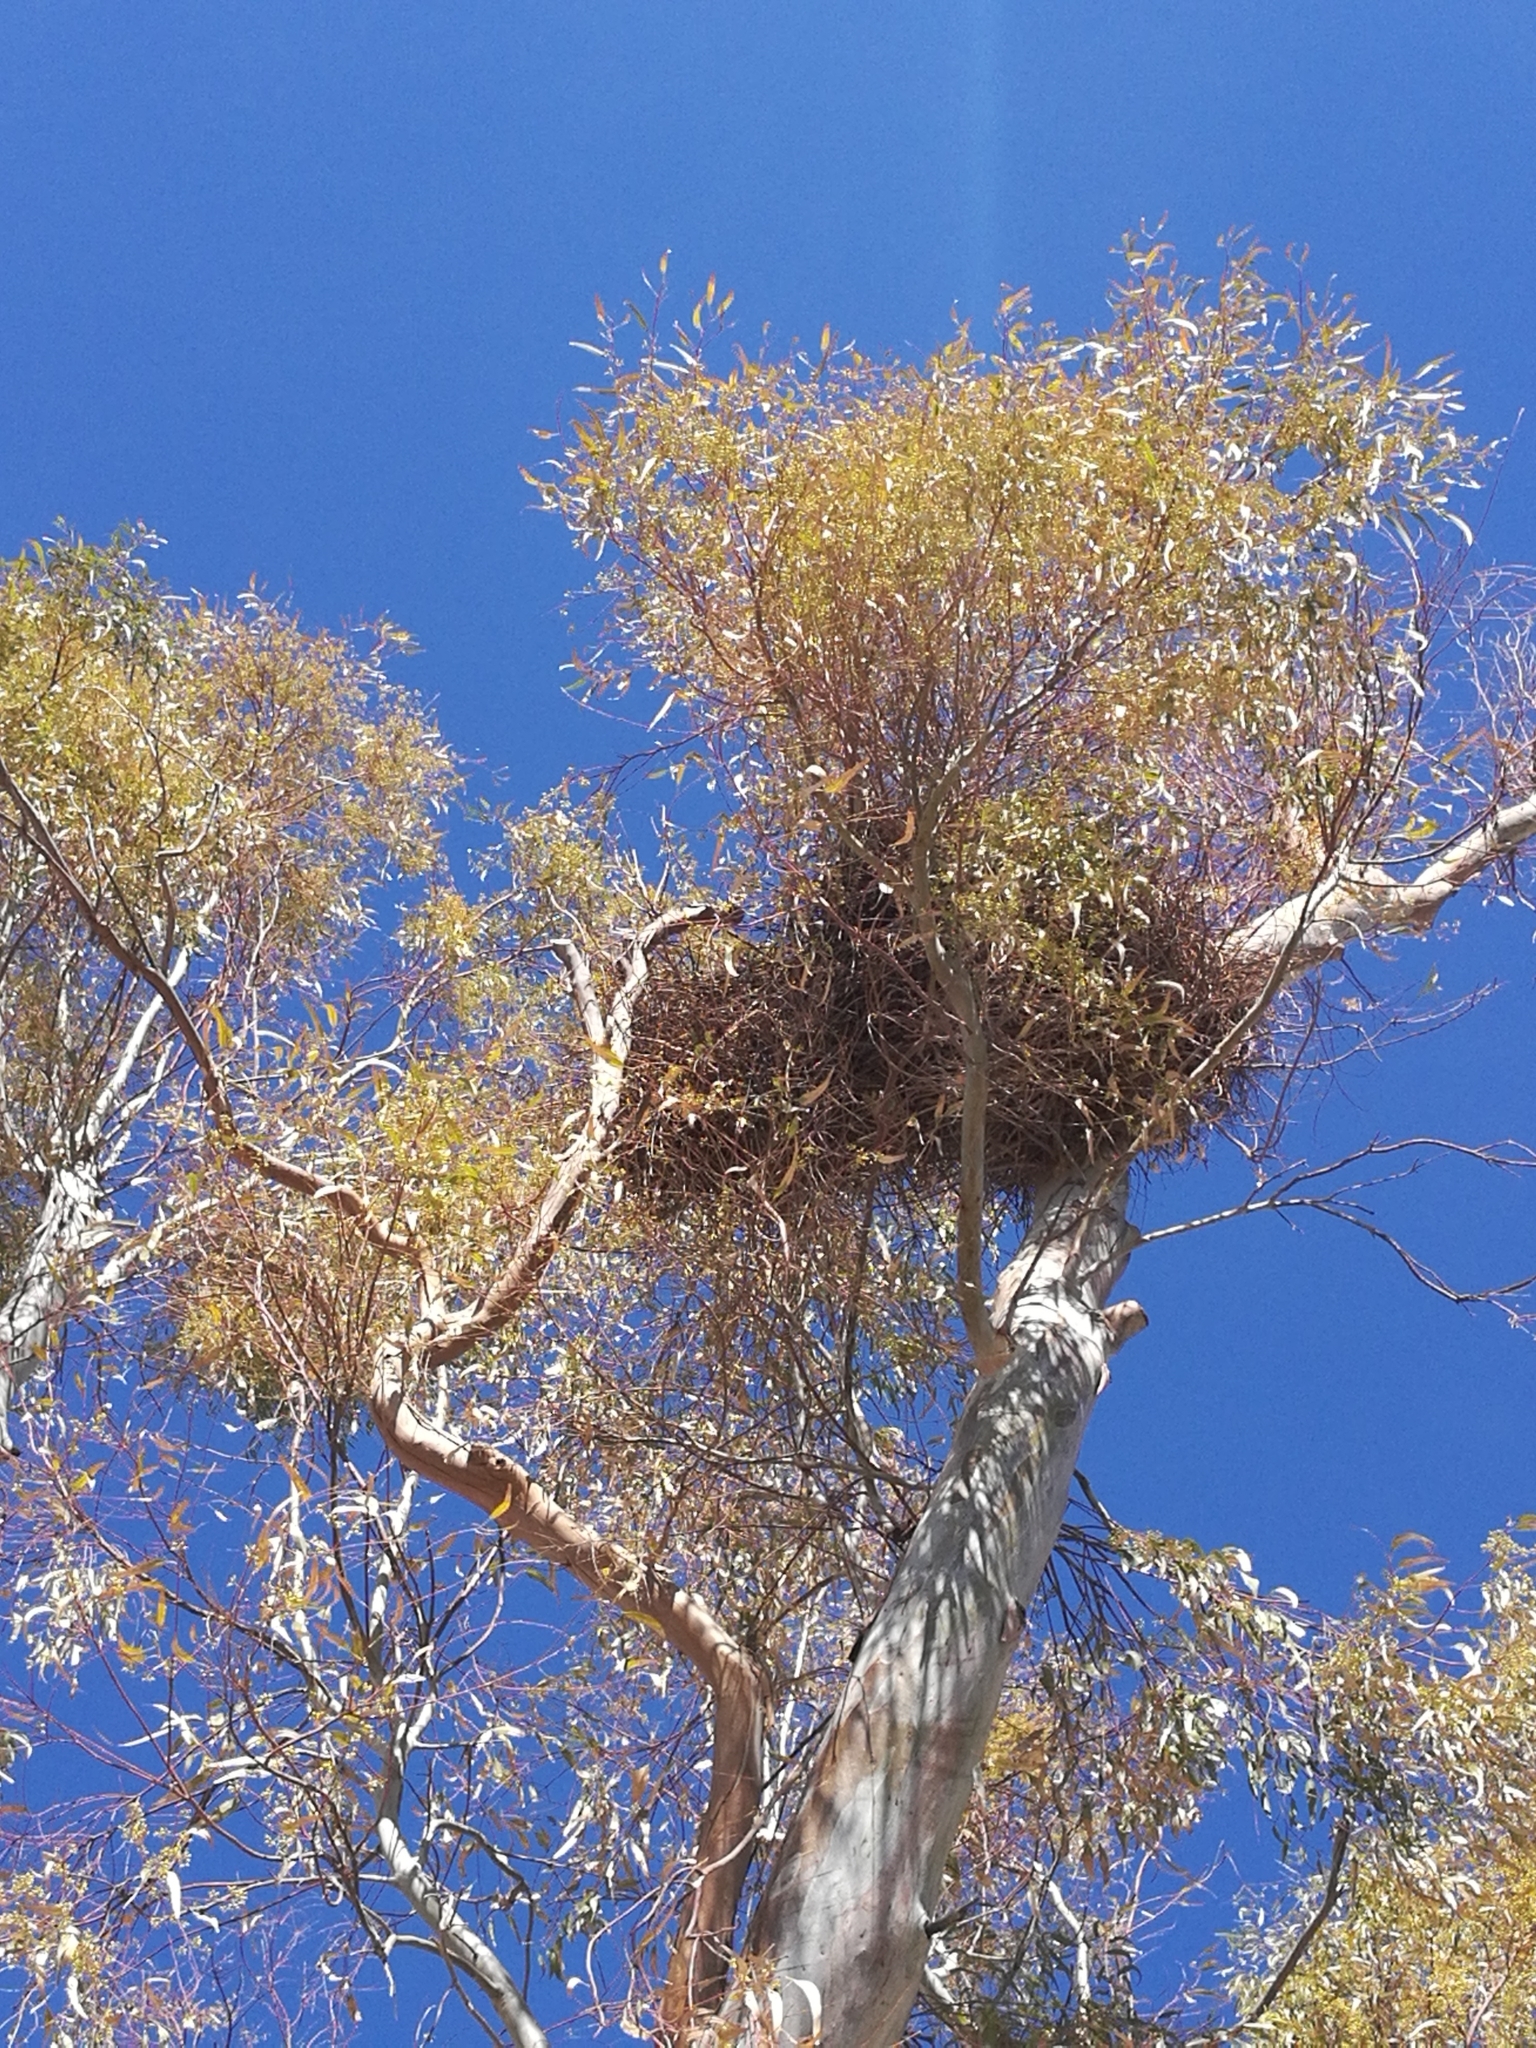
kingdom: Animalia
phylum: Chordata
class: Aves
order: Psittaciformes
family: Psittacidae
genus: Myiopsitta
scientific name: Myiopsitta monachus
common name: Monk parakeet
